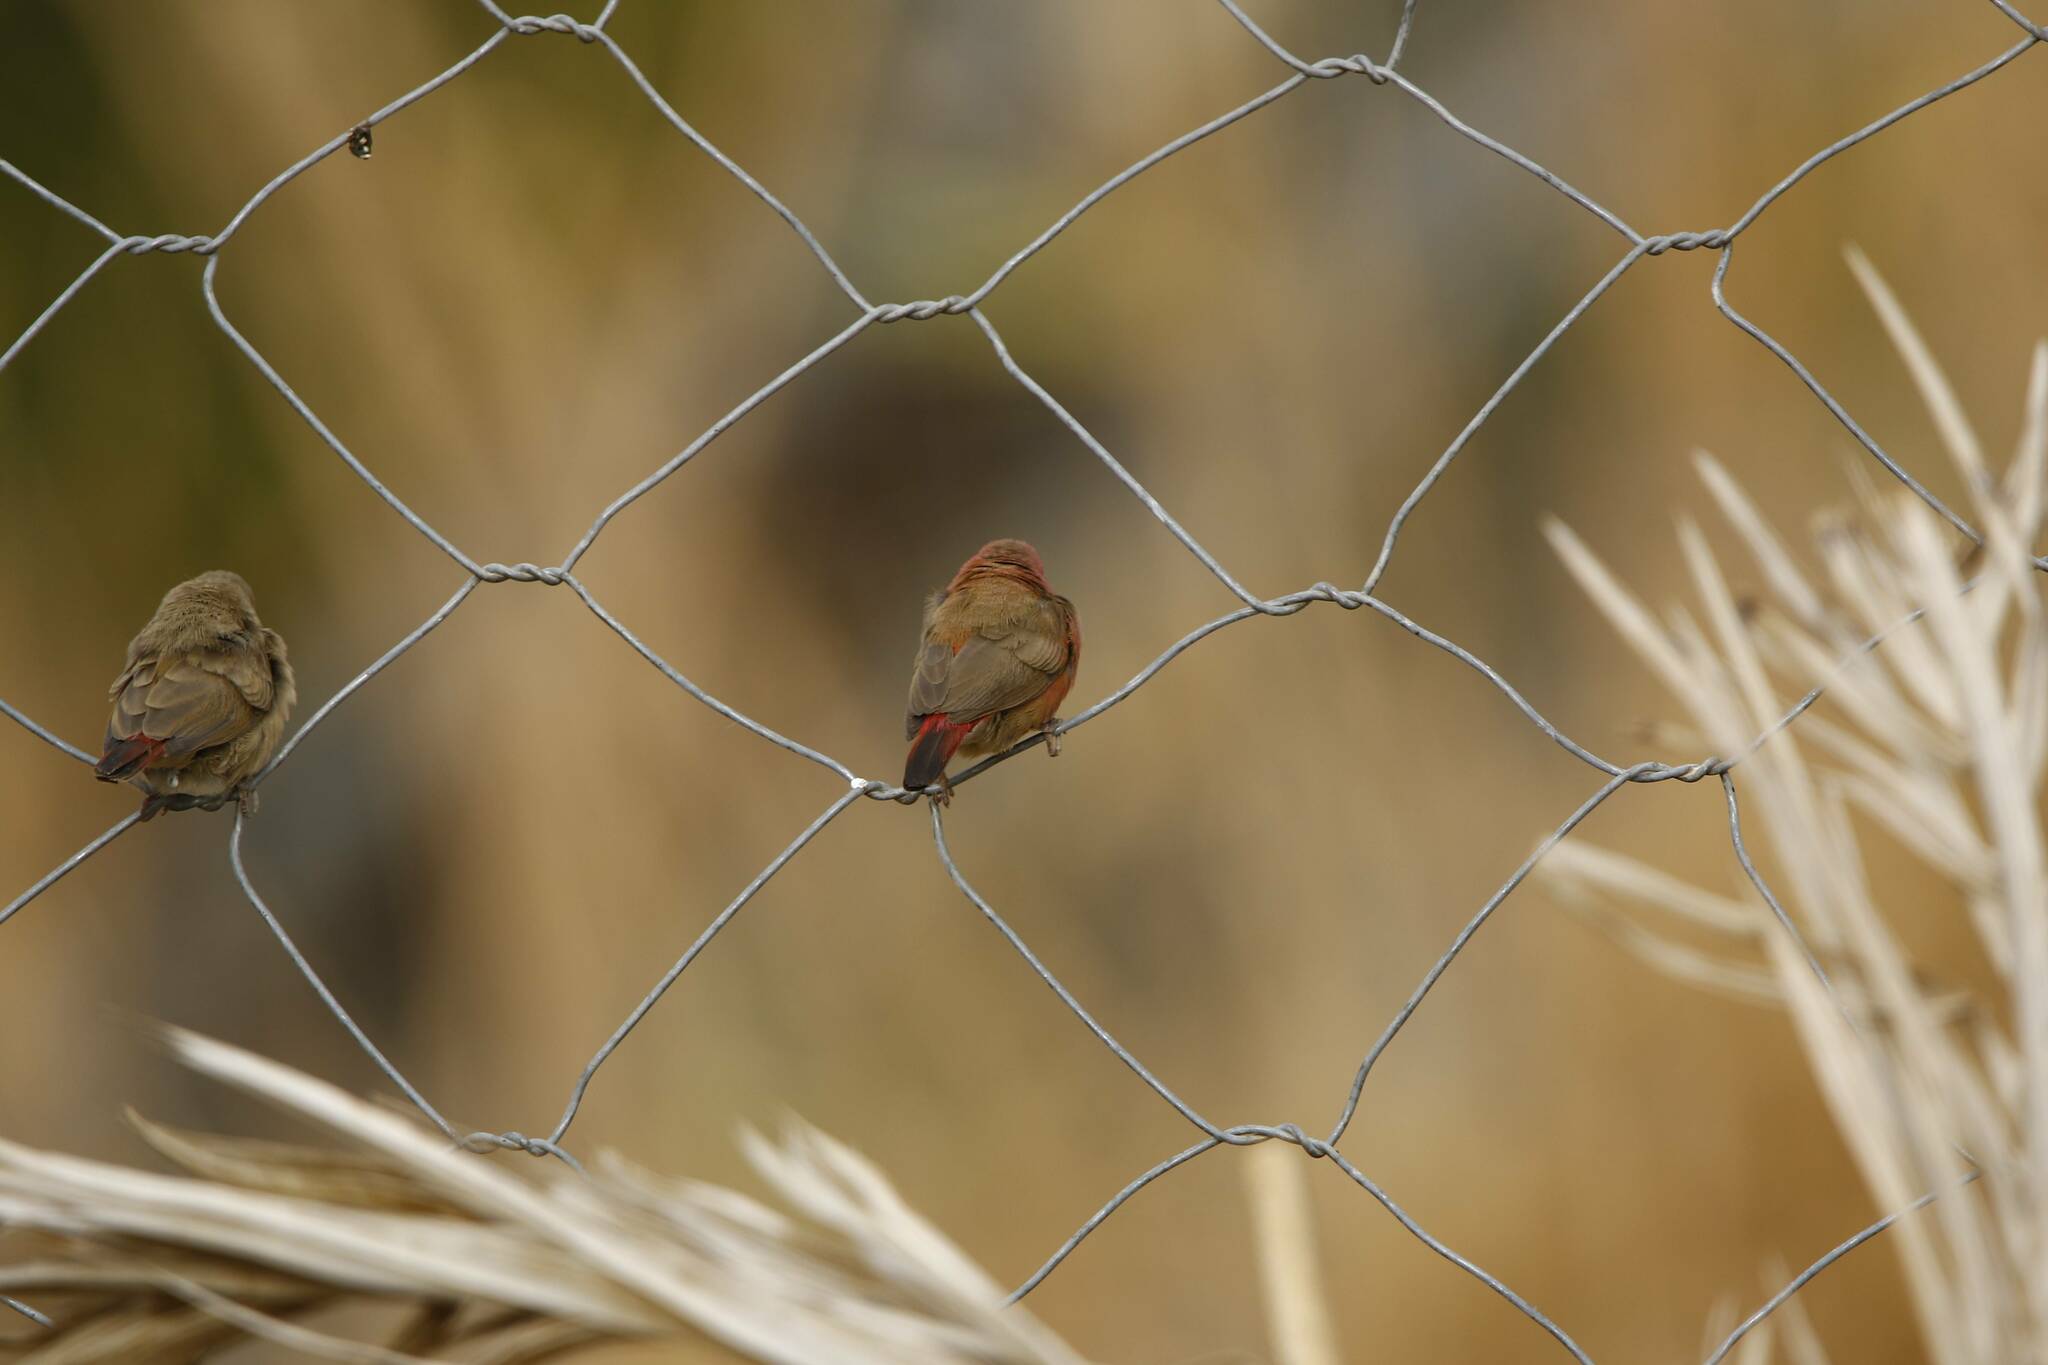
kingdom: Animalia
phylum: Chordata
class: Aves
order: Passeriformes
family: Estrildidae
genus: Lagonosticta
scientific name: Lagonosticta senegala
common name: Red-billed firefinch
